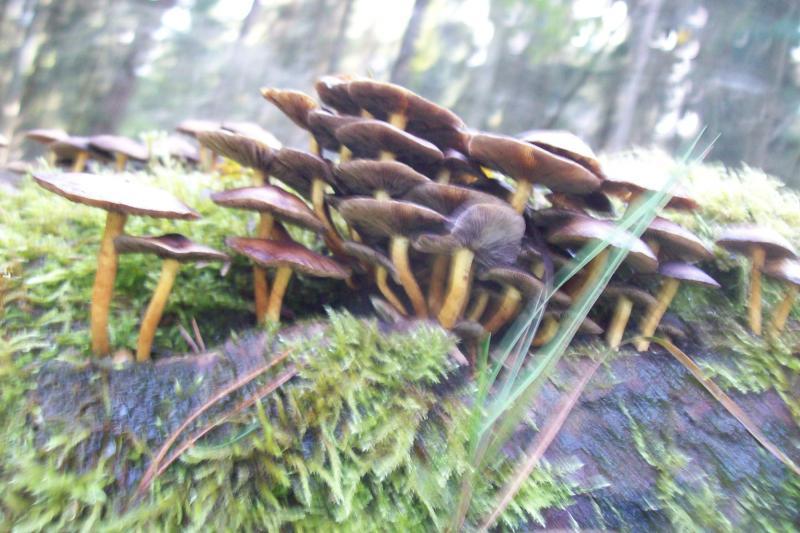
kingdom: Fungi
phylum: Basidiomycota
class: Agaricomycetes
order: Agaricales
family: Strophariaceae
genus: Hypholoma
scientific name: Hypholoma fasciculare
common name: Sulphur tuft
